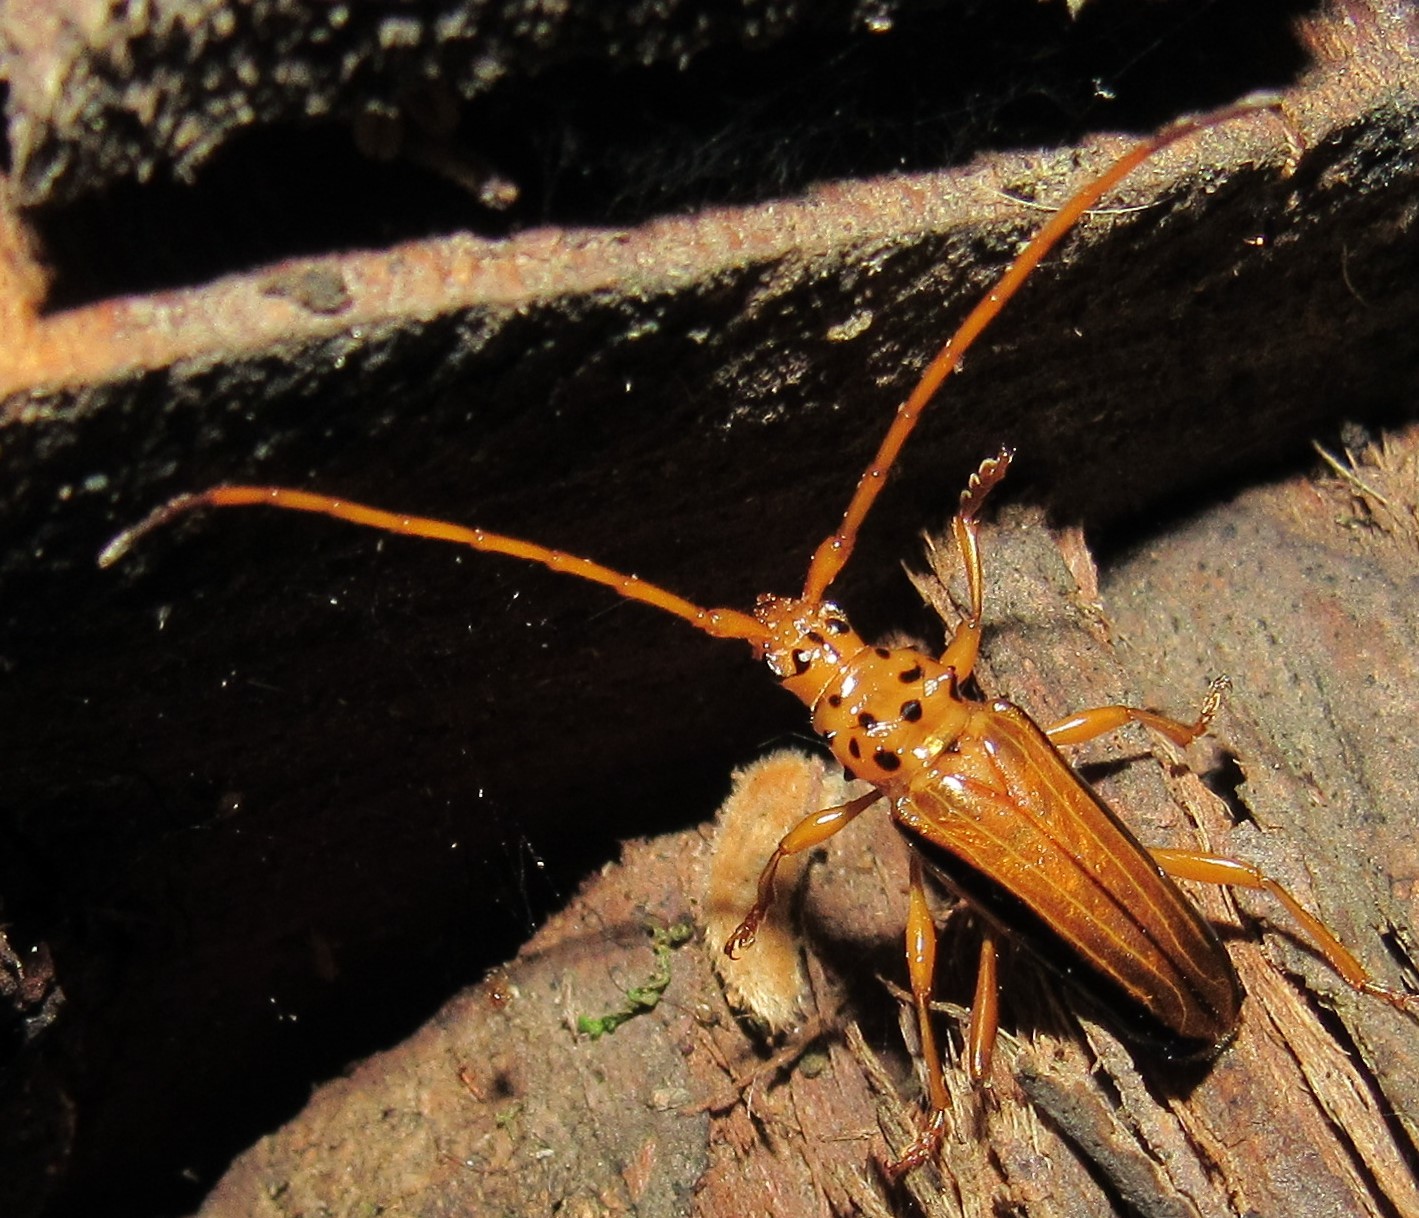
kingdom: Animalia
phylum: Arthropoda
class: Insecta
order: Coleoptera
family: Cerambycidae
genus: Chydarteres
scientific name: Chydarteres dimidiatus
